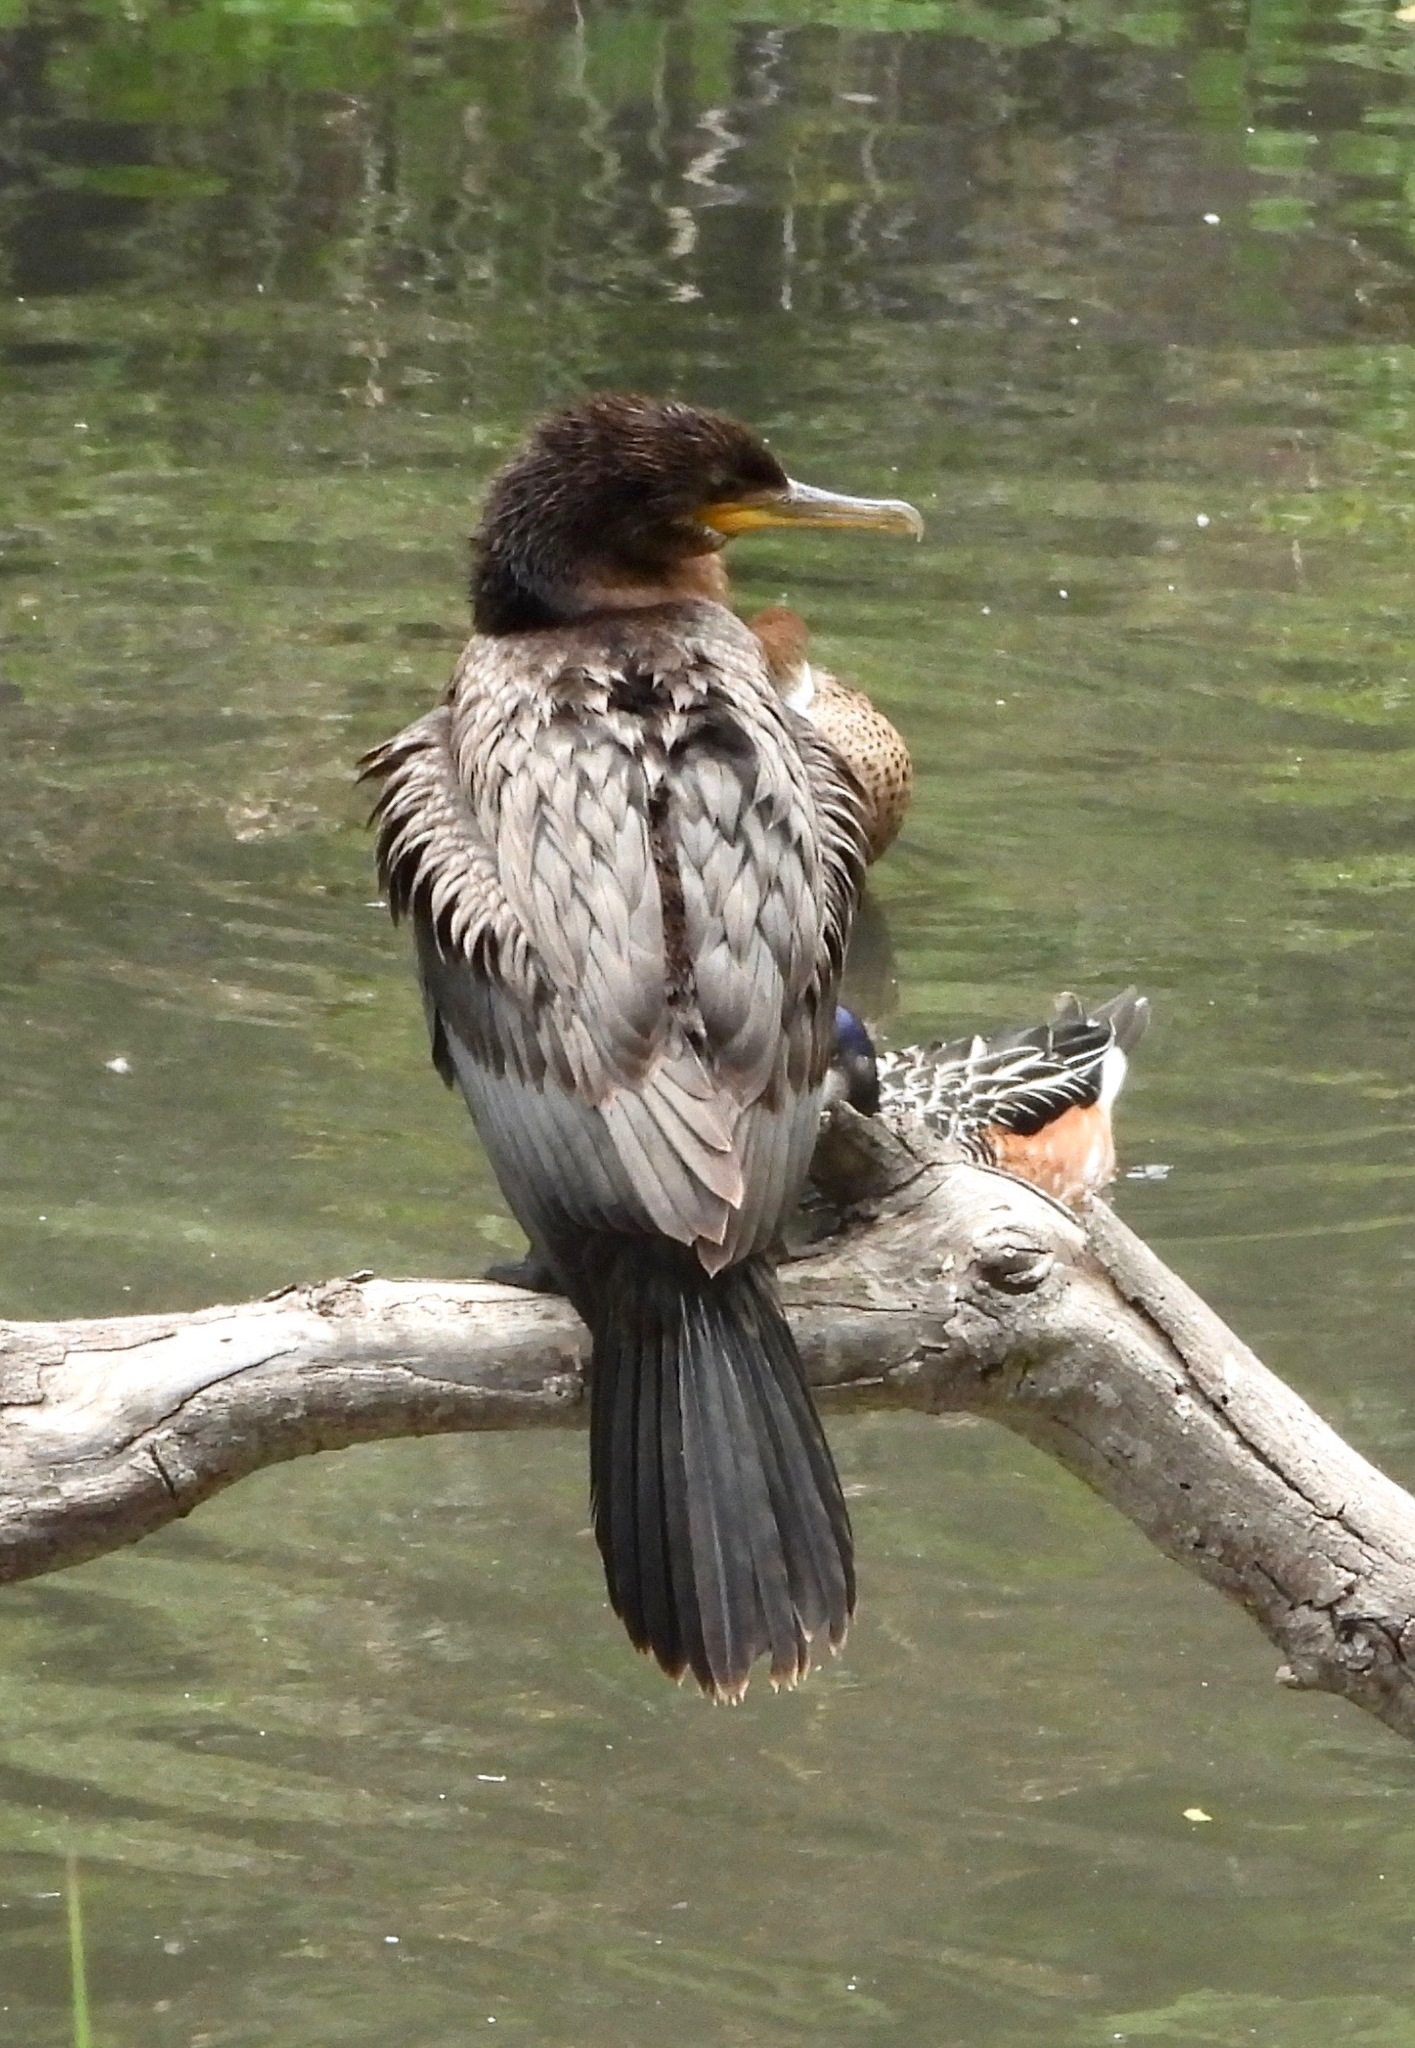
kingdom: Animalia
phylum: Chordata
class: Aves
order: Suliformes
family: Phalacrocoracidae
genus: Phalacrocorax
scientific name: Phalacrocorax brasilianus
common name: Neotropic cormorant
